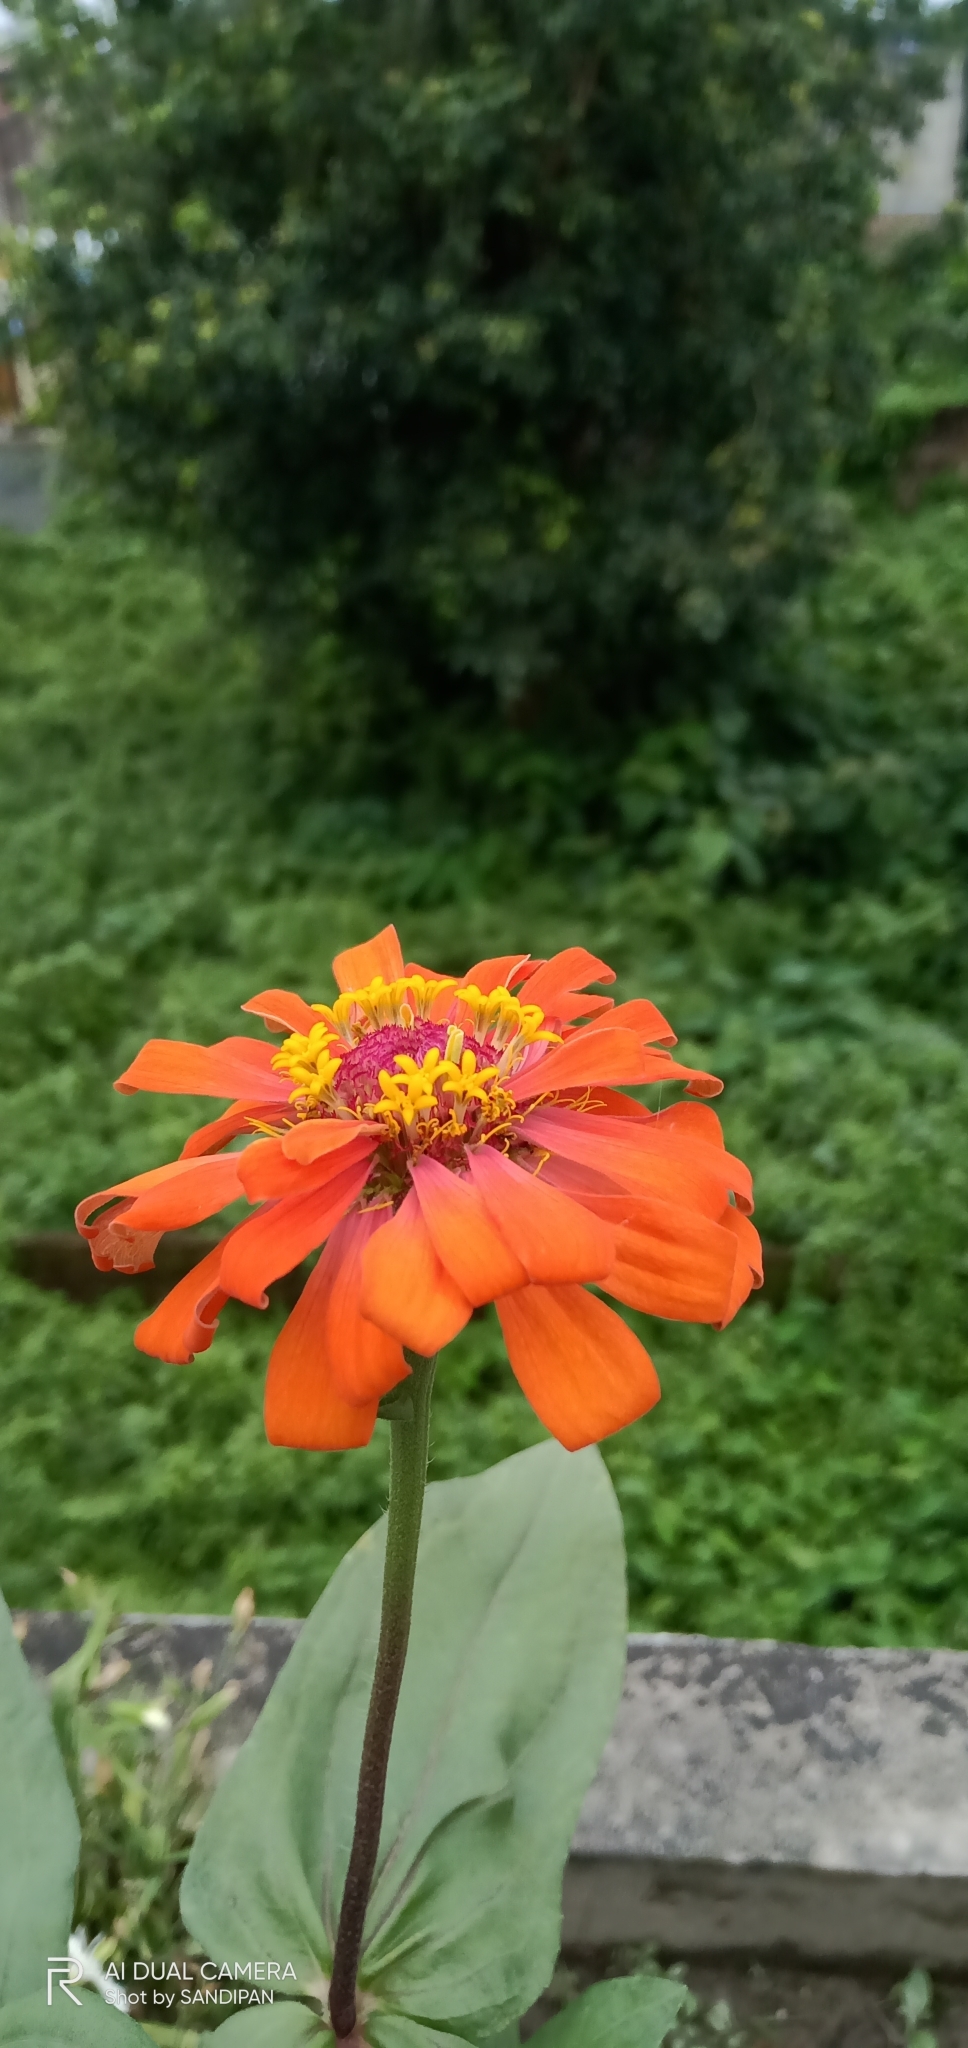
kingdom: Plantae
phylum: Tracheophyta
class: Magnoliopsida
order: Asterales
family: Asteraceae
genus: Zinnia
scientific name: Zinnia elegans
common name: Youth-and-age
